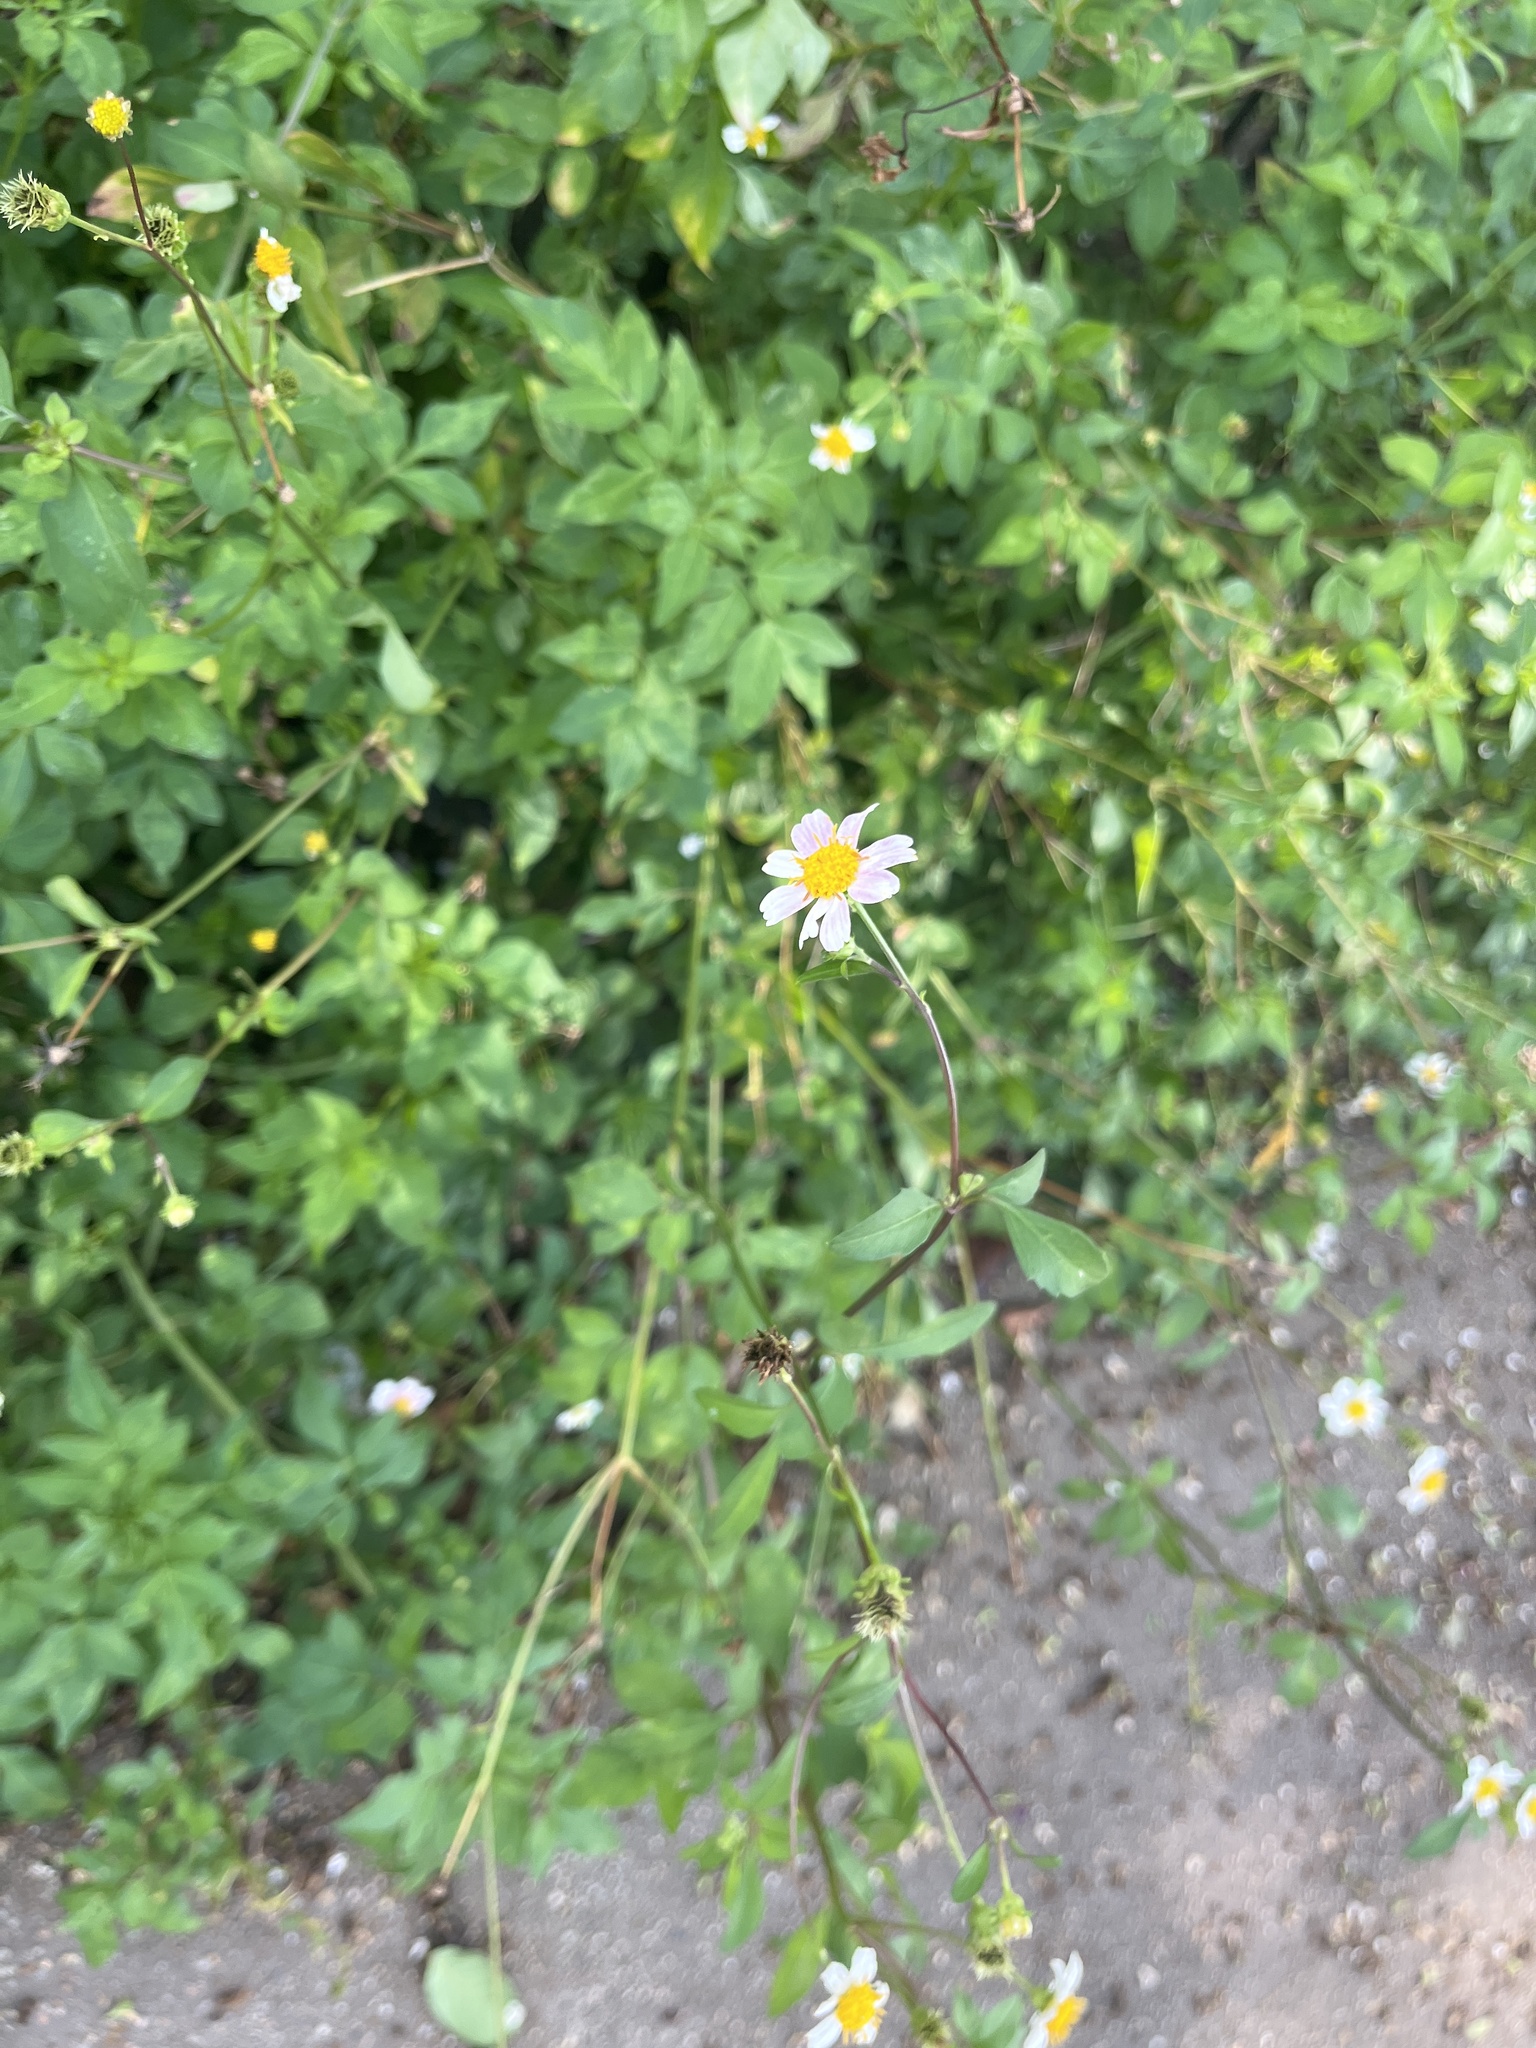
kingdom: Plantae
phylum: Tracheophyta
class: Magnoliopsida
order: Asterales
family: Asteraceae
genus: Bidens
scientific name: Bidens alba
